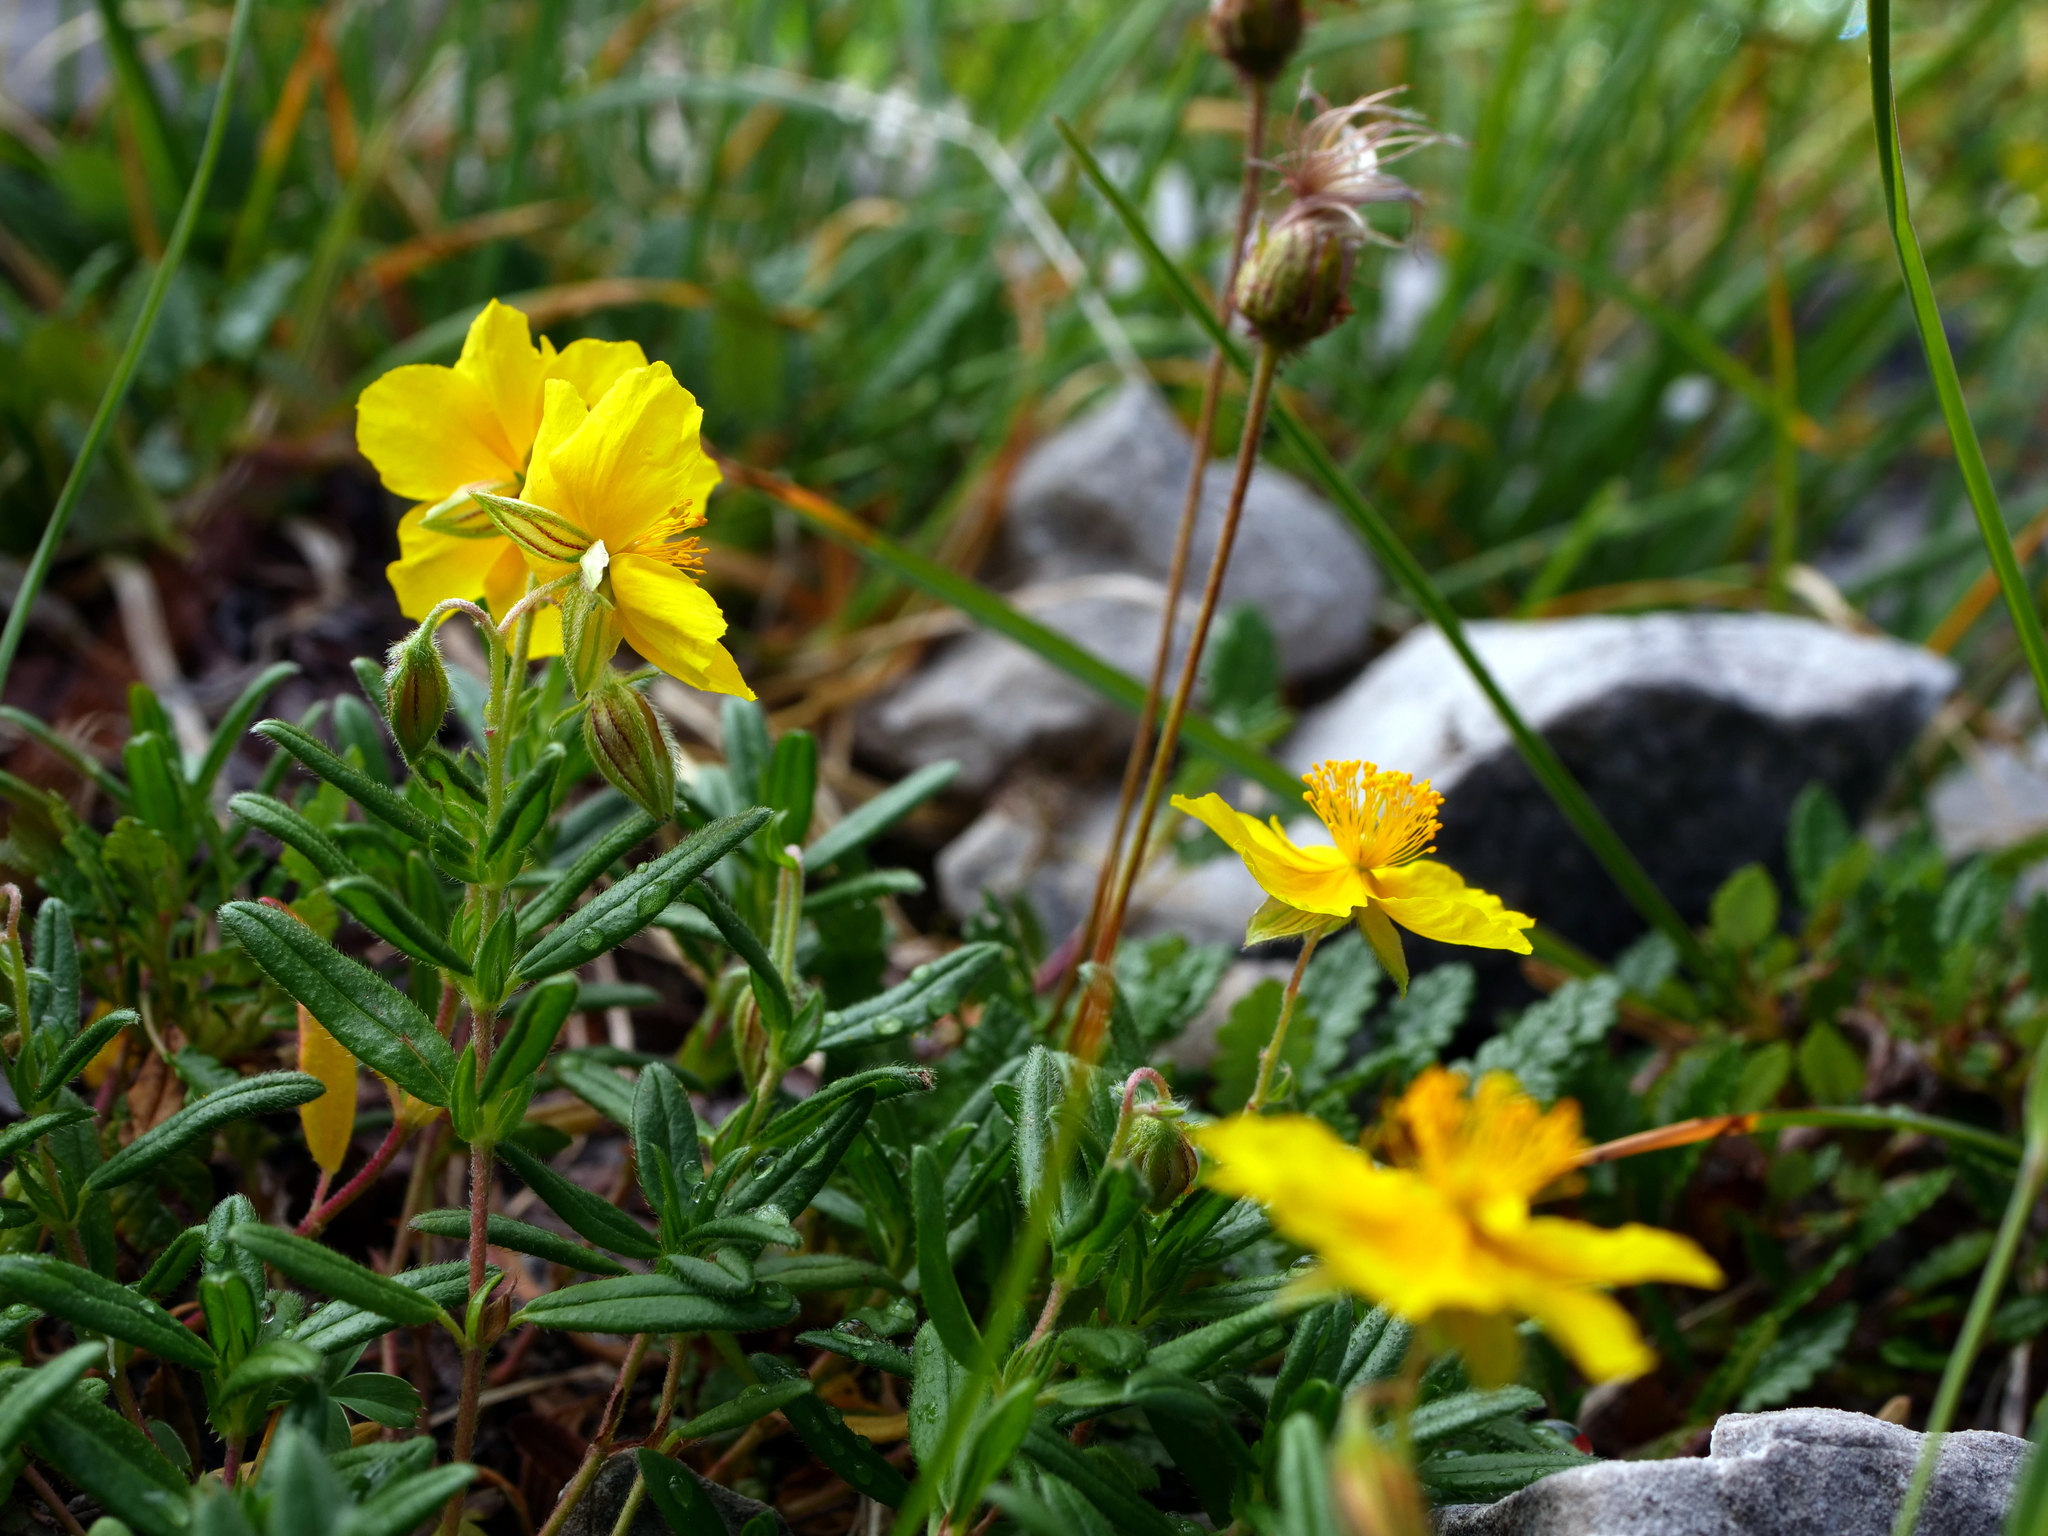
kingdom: Plantae
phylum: Tracheophyta
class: Magnoliopsida
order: Malvales
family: Cistaceae
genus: Helianthemum
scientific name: Helianthemum nummularium
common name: Common rock-rose
